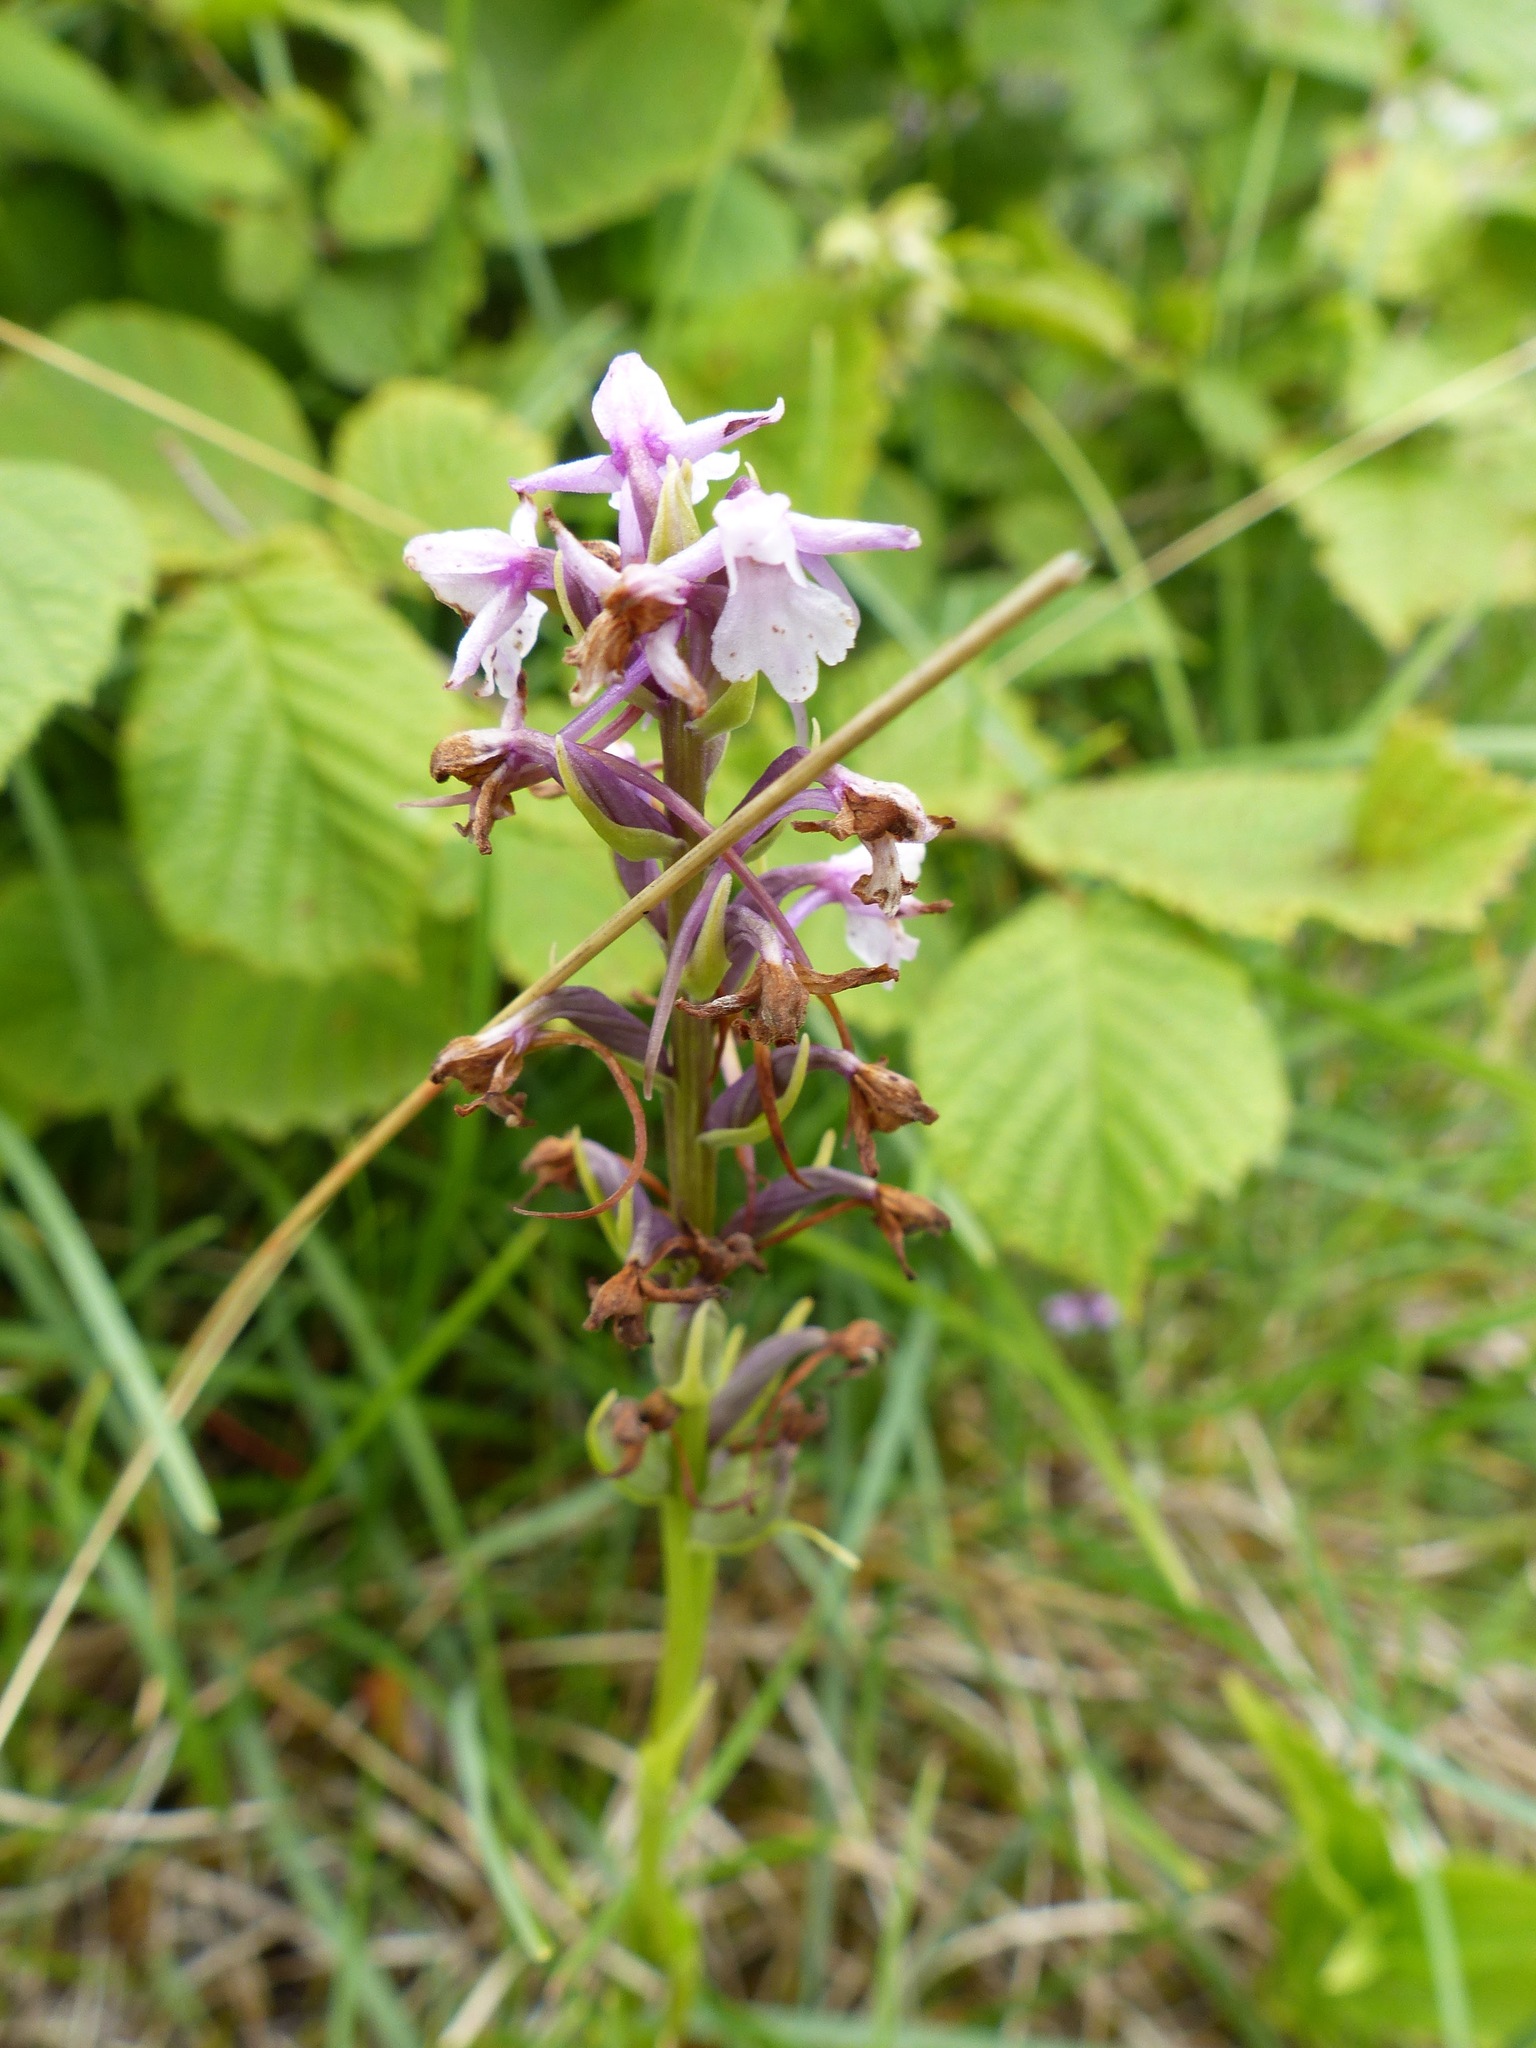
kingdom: Plantae
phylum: Tracheophyta
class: Liliopsida
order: Asparagales
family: Orchidaceae
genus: Gymnadenia
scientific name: Gymnadenia conopsea
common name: Fragrant orchid
